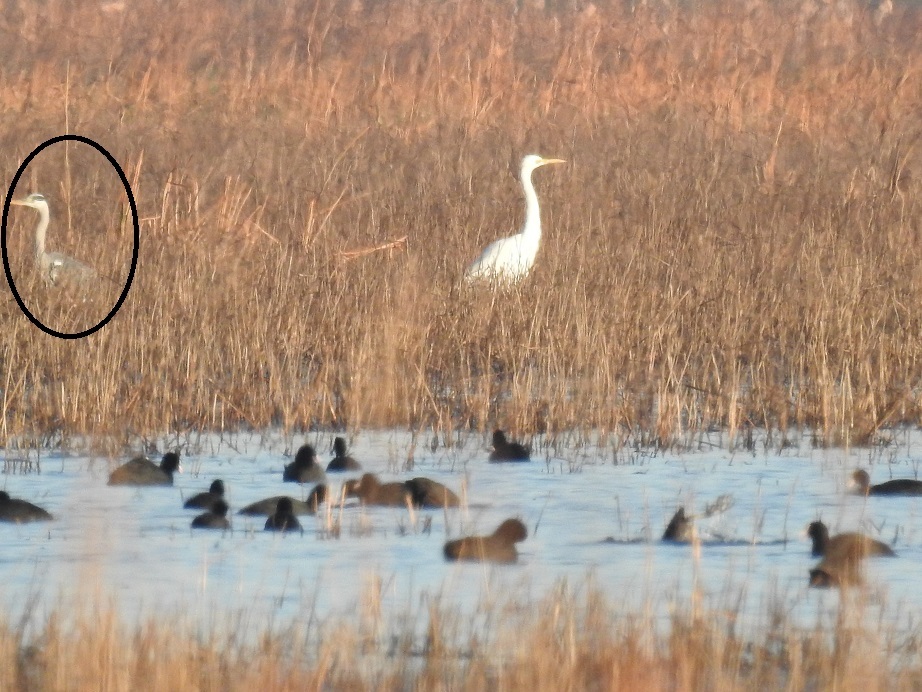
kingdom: Animalia
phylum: Chordata
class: Aves
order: Pelecaniformes
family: Ardeidae
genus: Ardea
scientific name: Ardea cinerea
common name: Grey heron
